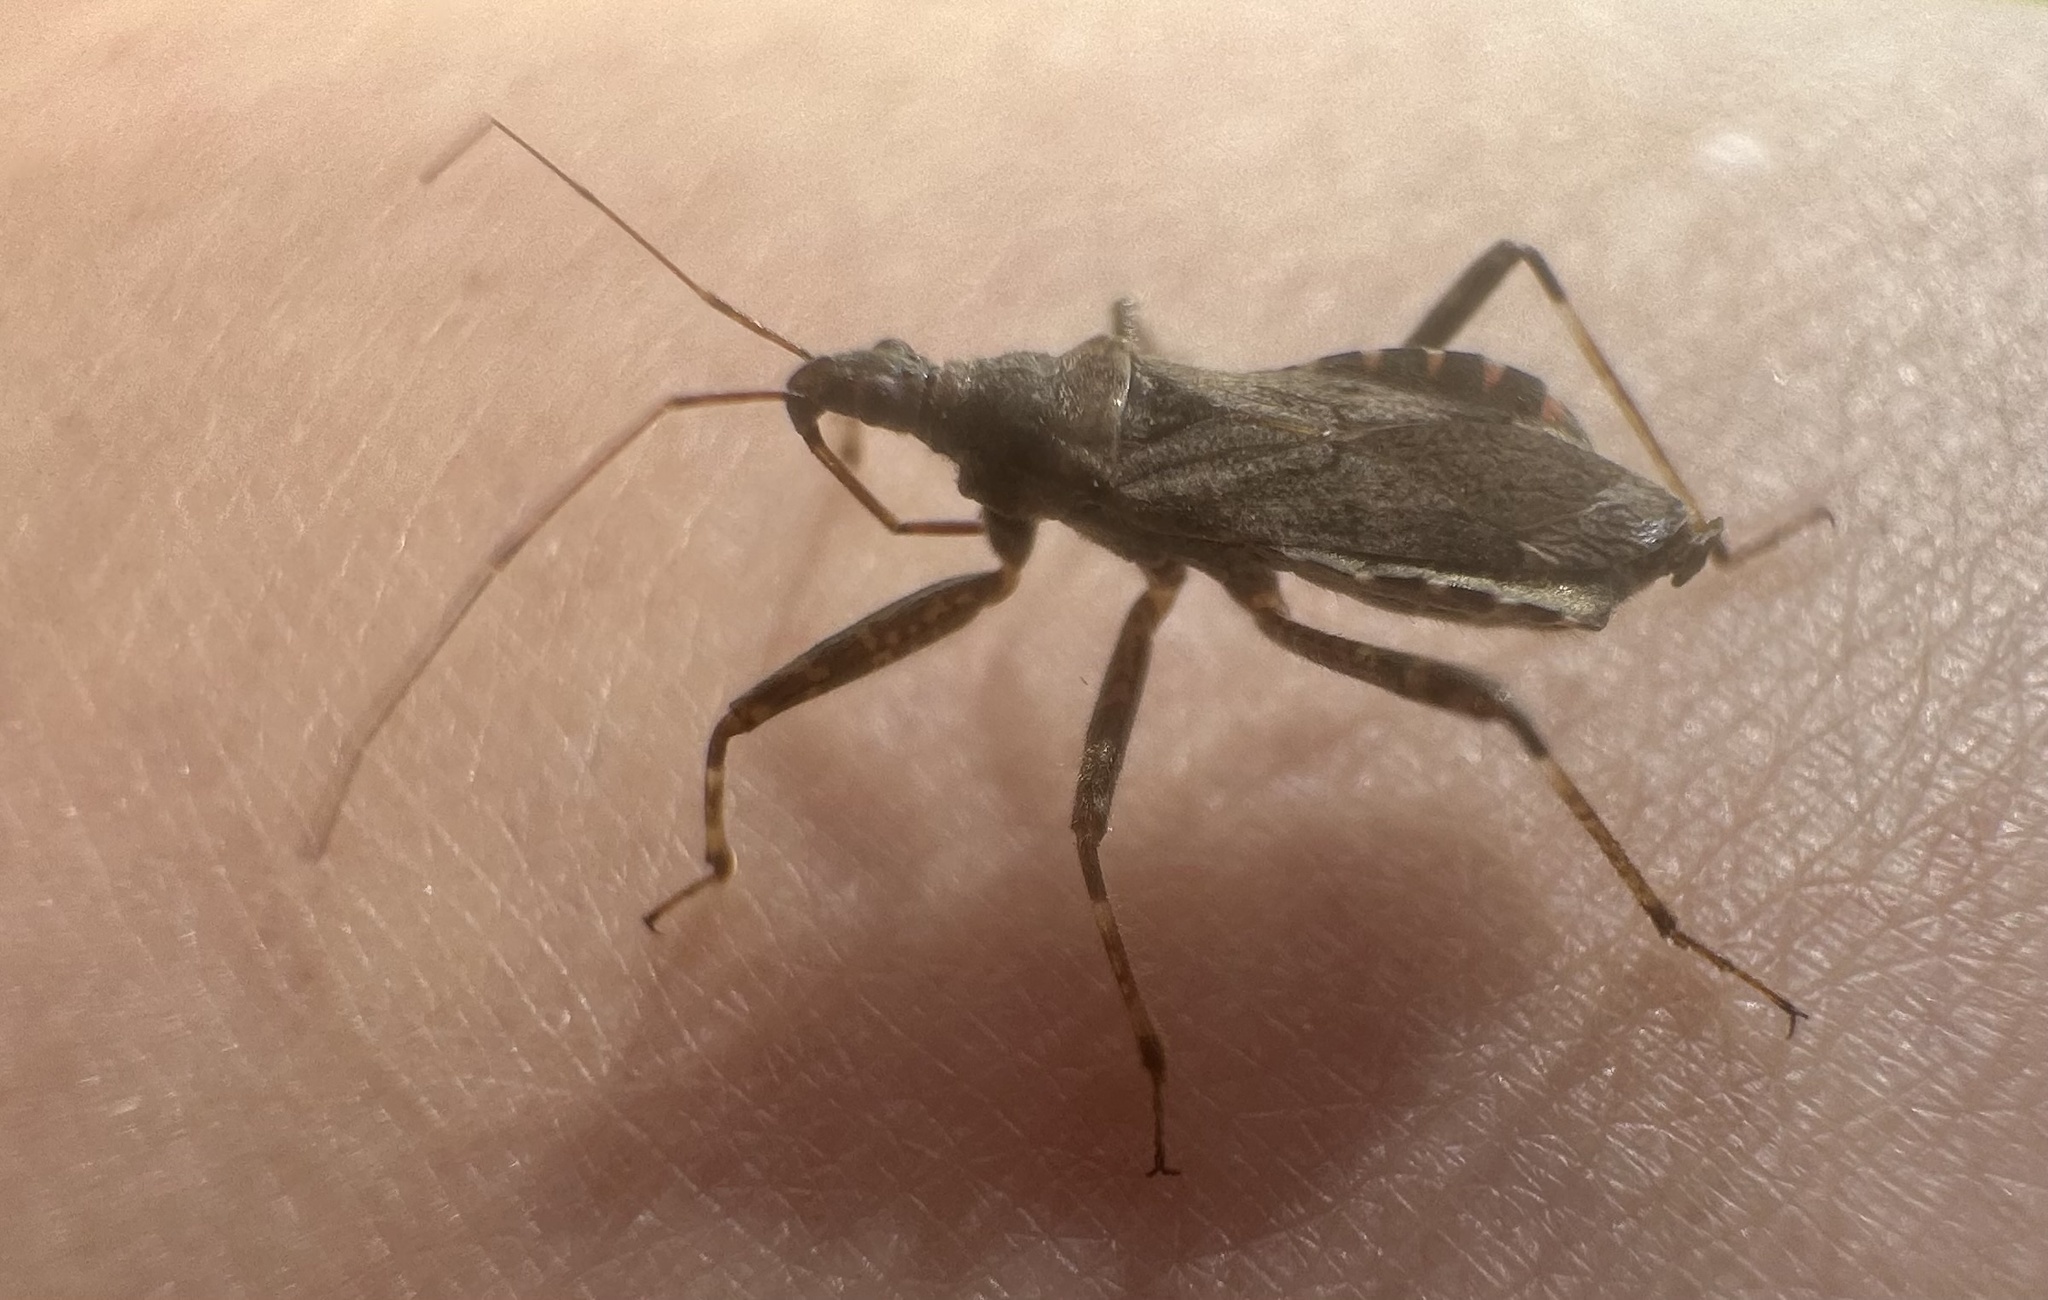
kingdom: Animalia
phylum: Arthropoda
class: Insecta
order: Hemiptera
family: Nabidae
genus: Himacerus
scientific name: Himacerus apterus
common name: Tree damsel bug
